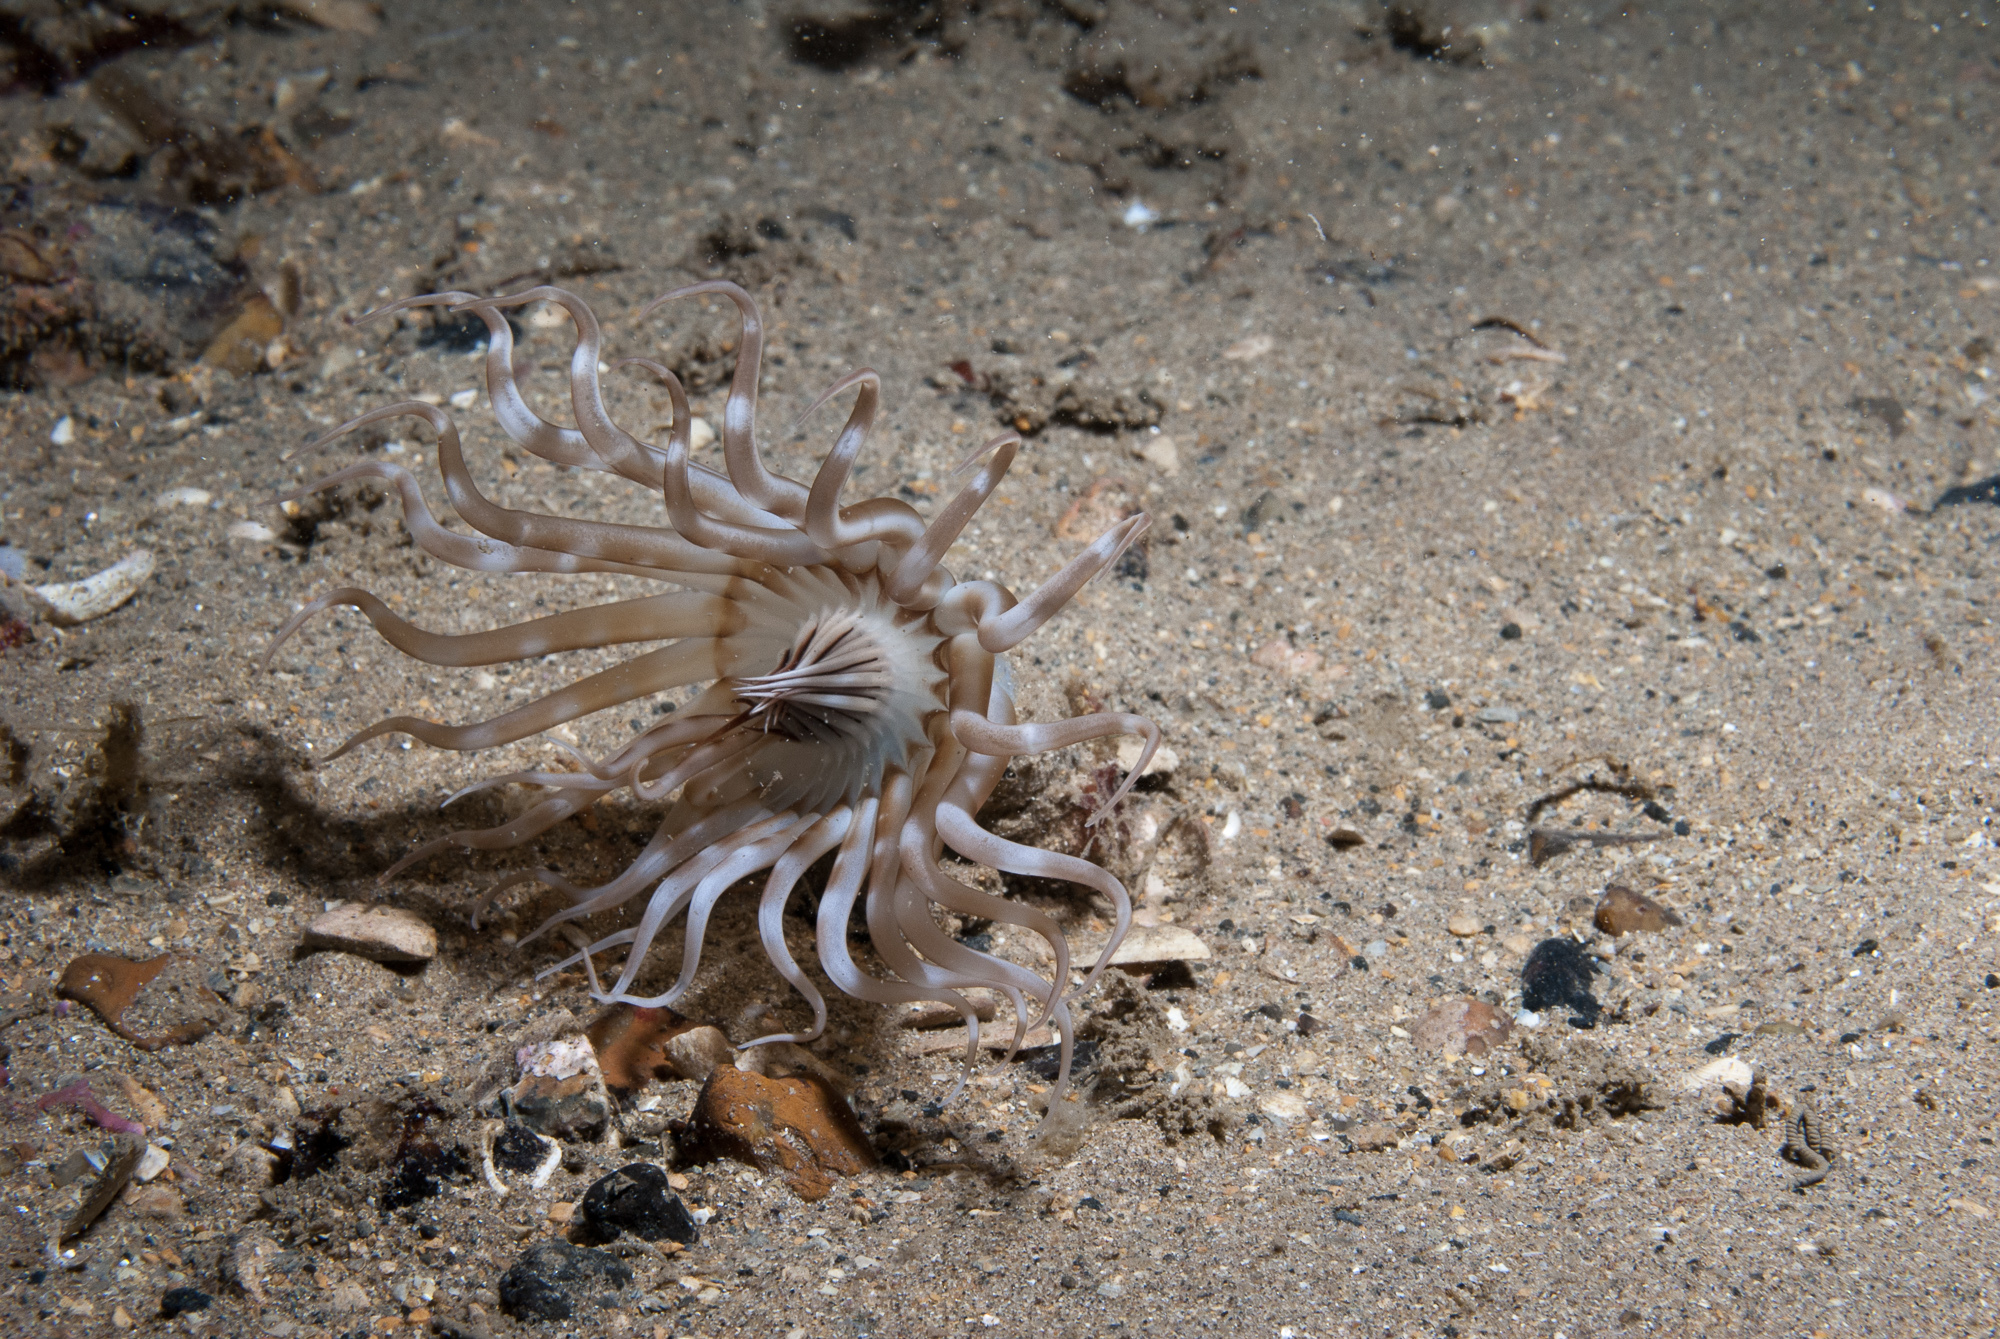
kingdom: Animalia
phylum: Cnidaria
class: Anthozoa
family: Arachnactidae
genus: Arachnanthus
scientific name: Arachnanthus sarsi
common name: Scarce tube-dwelling anemone
